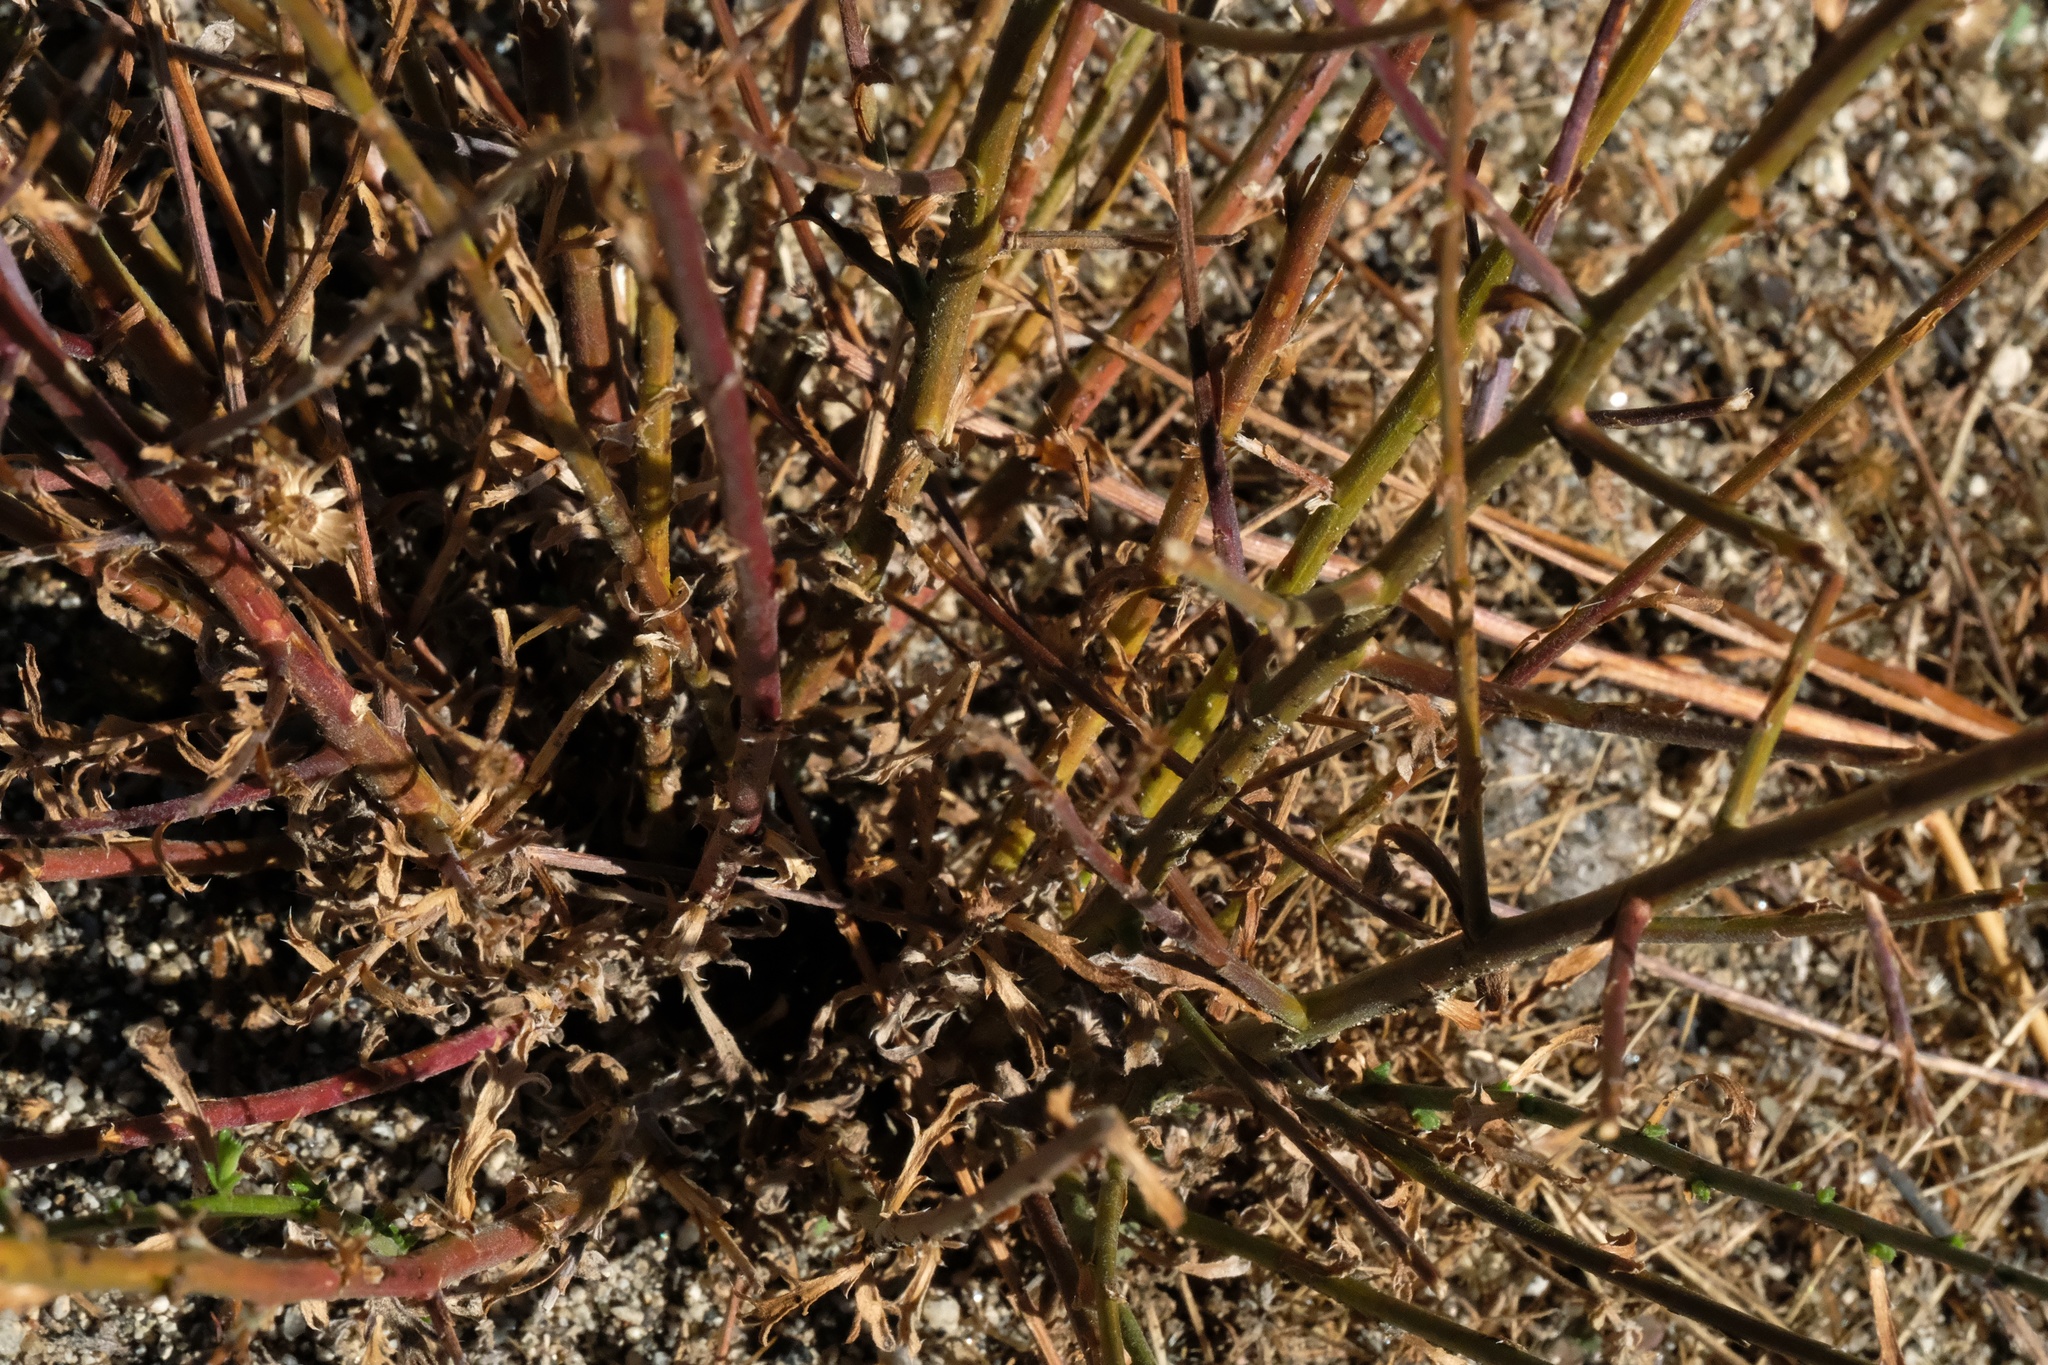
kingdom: Plantae
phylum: Tracheophyta
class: Magnoliopsida
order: Asterales
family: Asteraceae
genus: Xanthisma
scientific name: Xanthisma junceum
